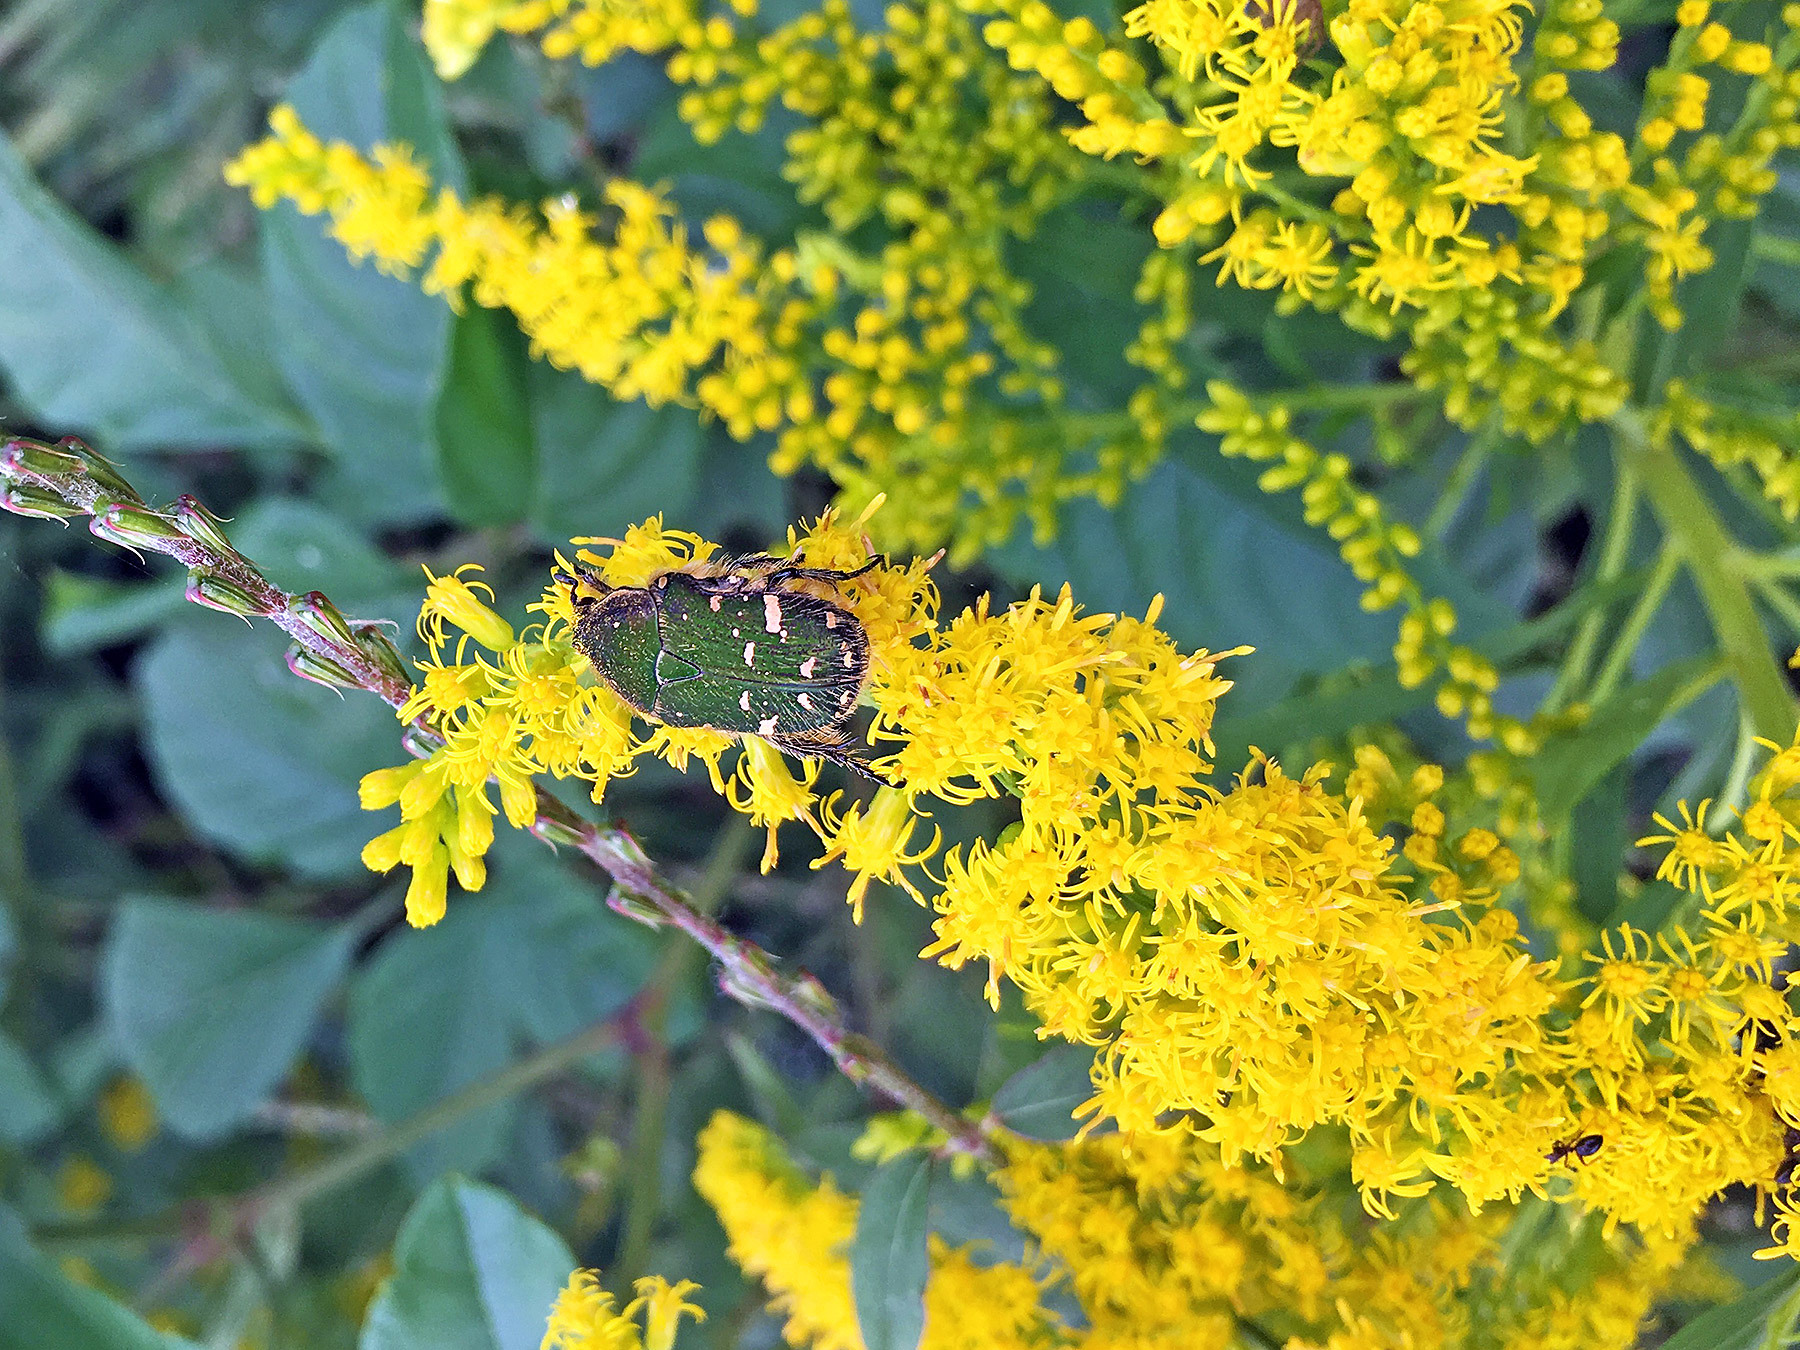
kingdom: Animalia
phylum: Arthropoda
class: Insecta
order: Coleoptera
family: Scarabaeidae
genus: Gametis
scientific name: Gametis jucunda
